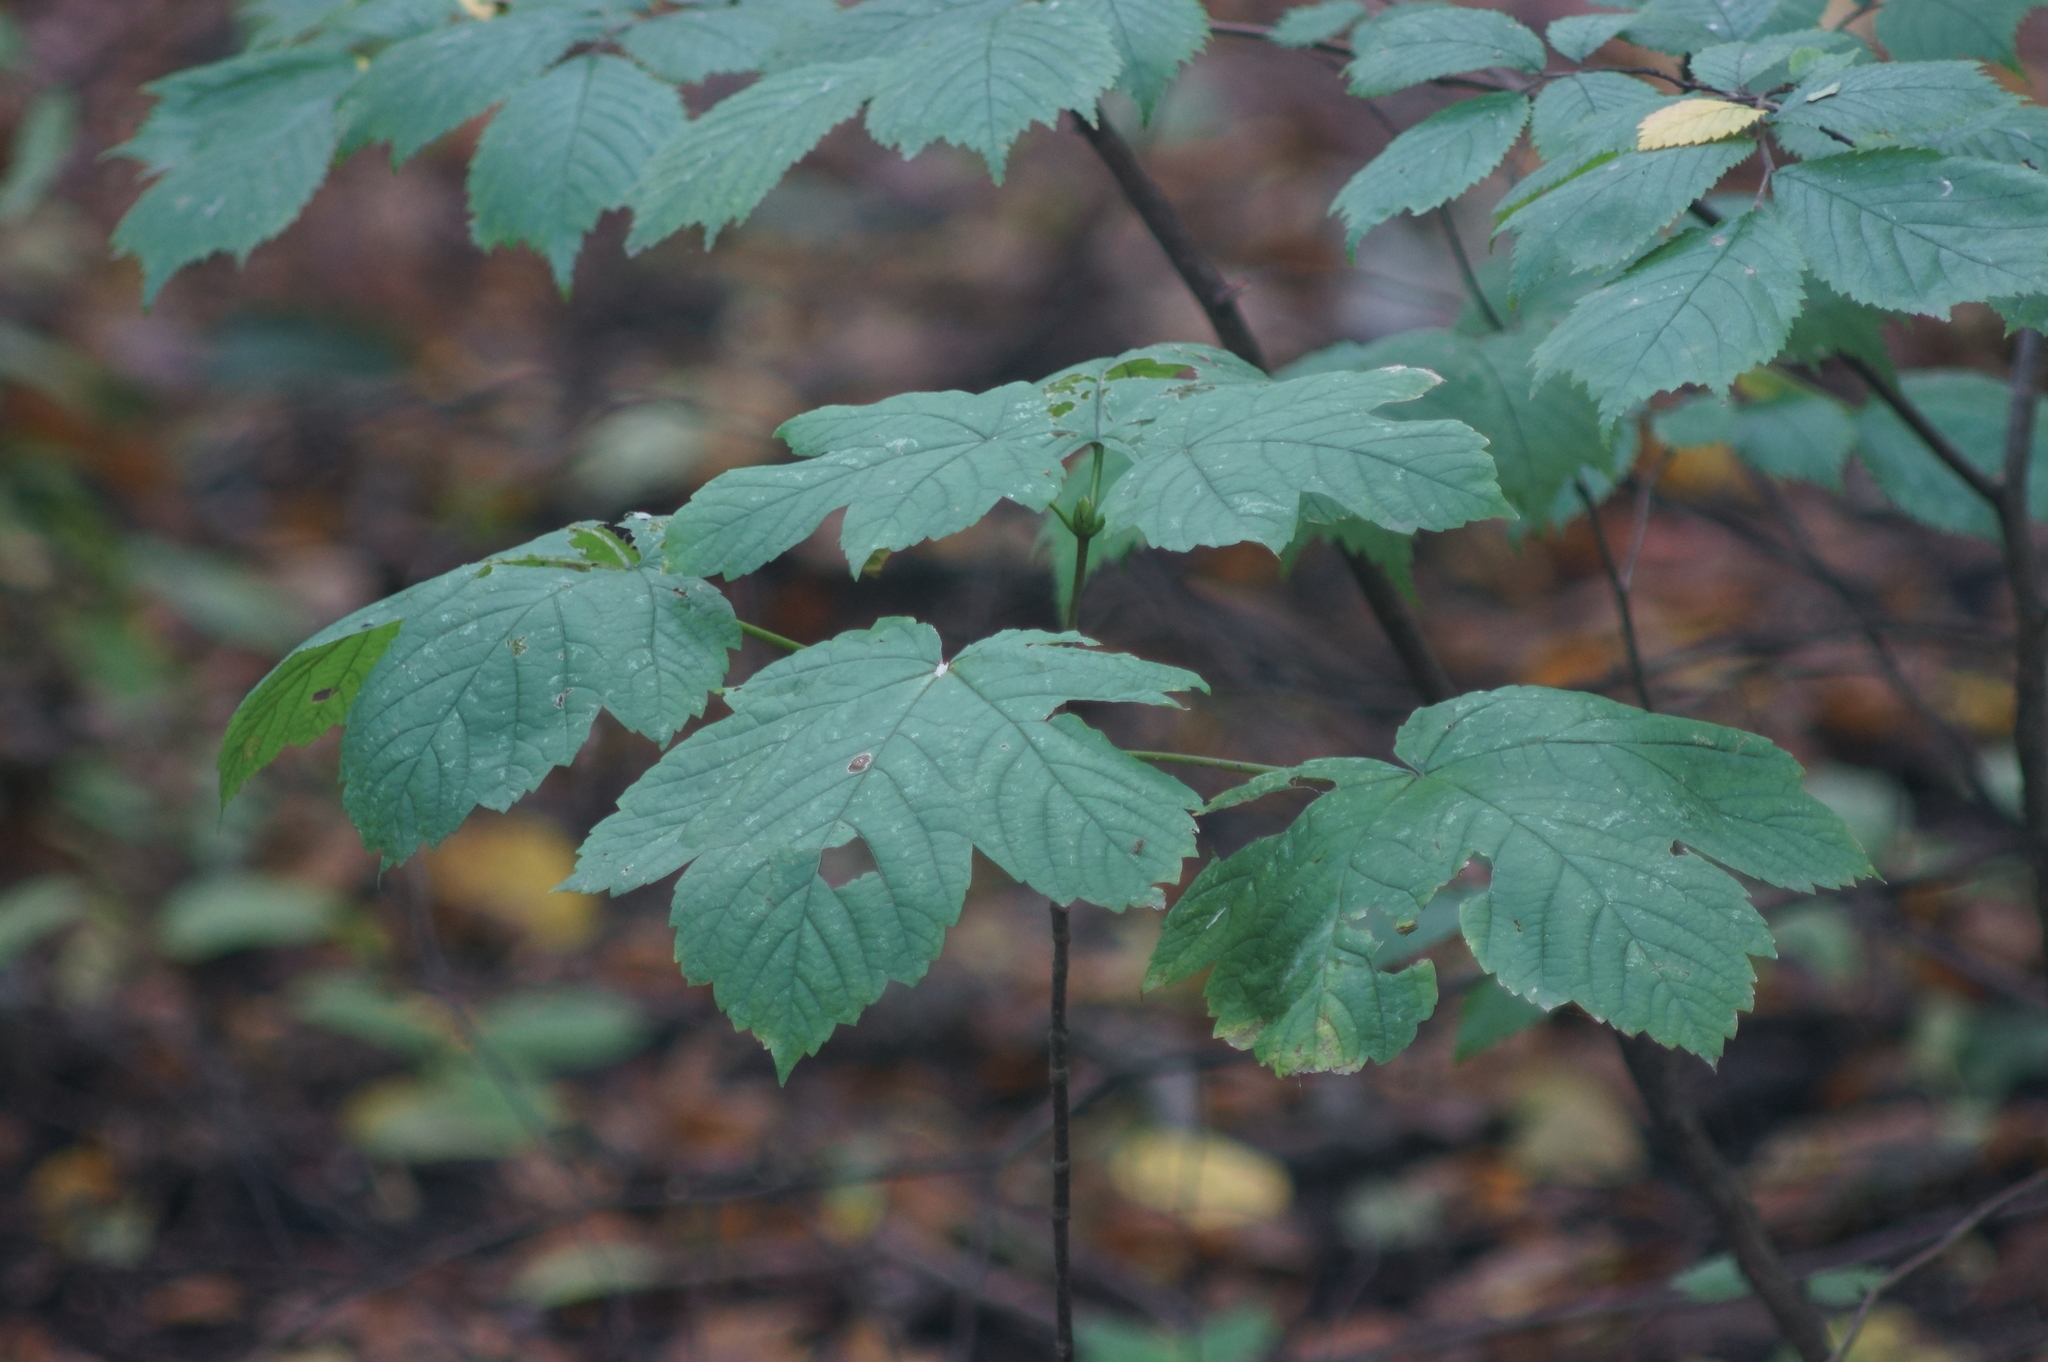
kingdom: Plantae
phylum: Tracheophyta
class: Magnoliopsida
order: Sapindales
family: Sapindaceae
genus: Acer
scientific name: Acer pseudoplatanus
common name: Sycamore
